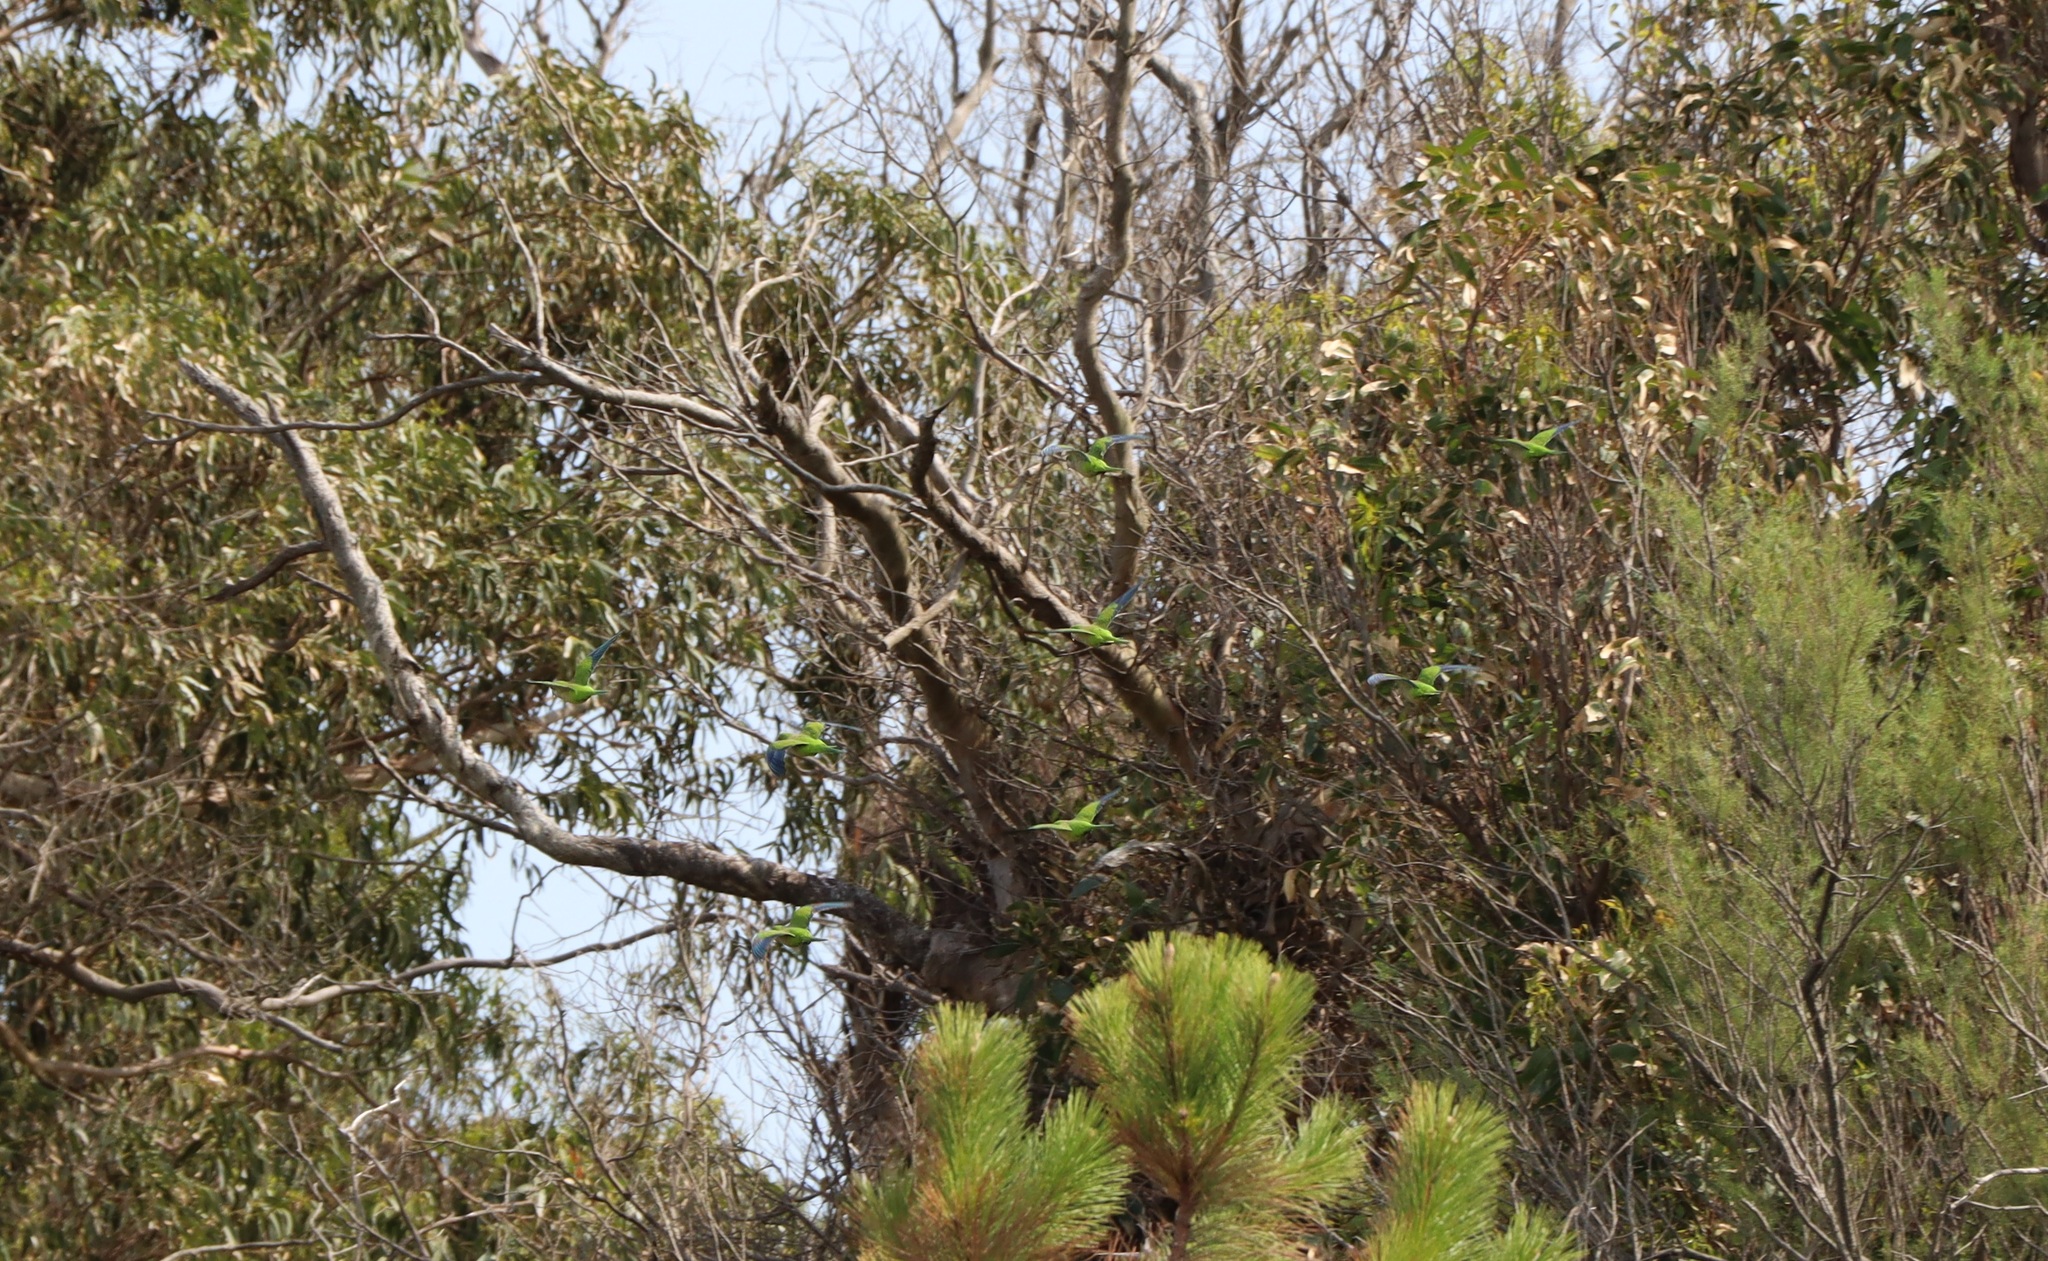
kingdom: Animalia
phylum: Chordata
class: Aves
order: Psittaciformes
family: Psittacidae
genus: Myiopsitta
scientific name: Myiopsitta monachus
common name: Monk parakeet
